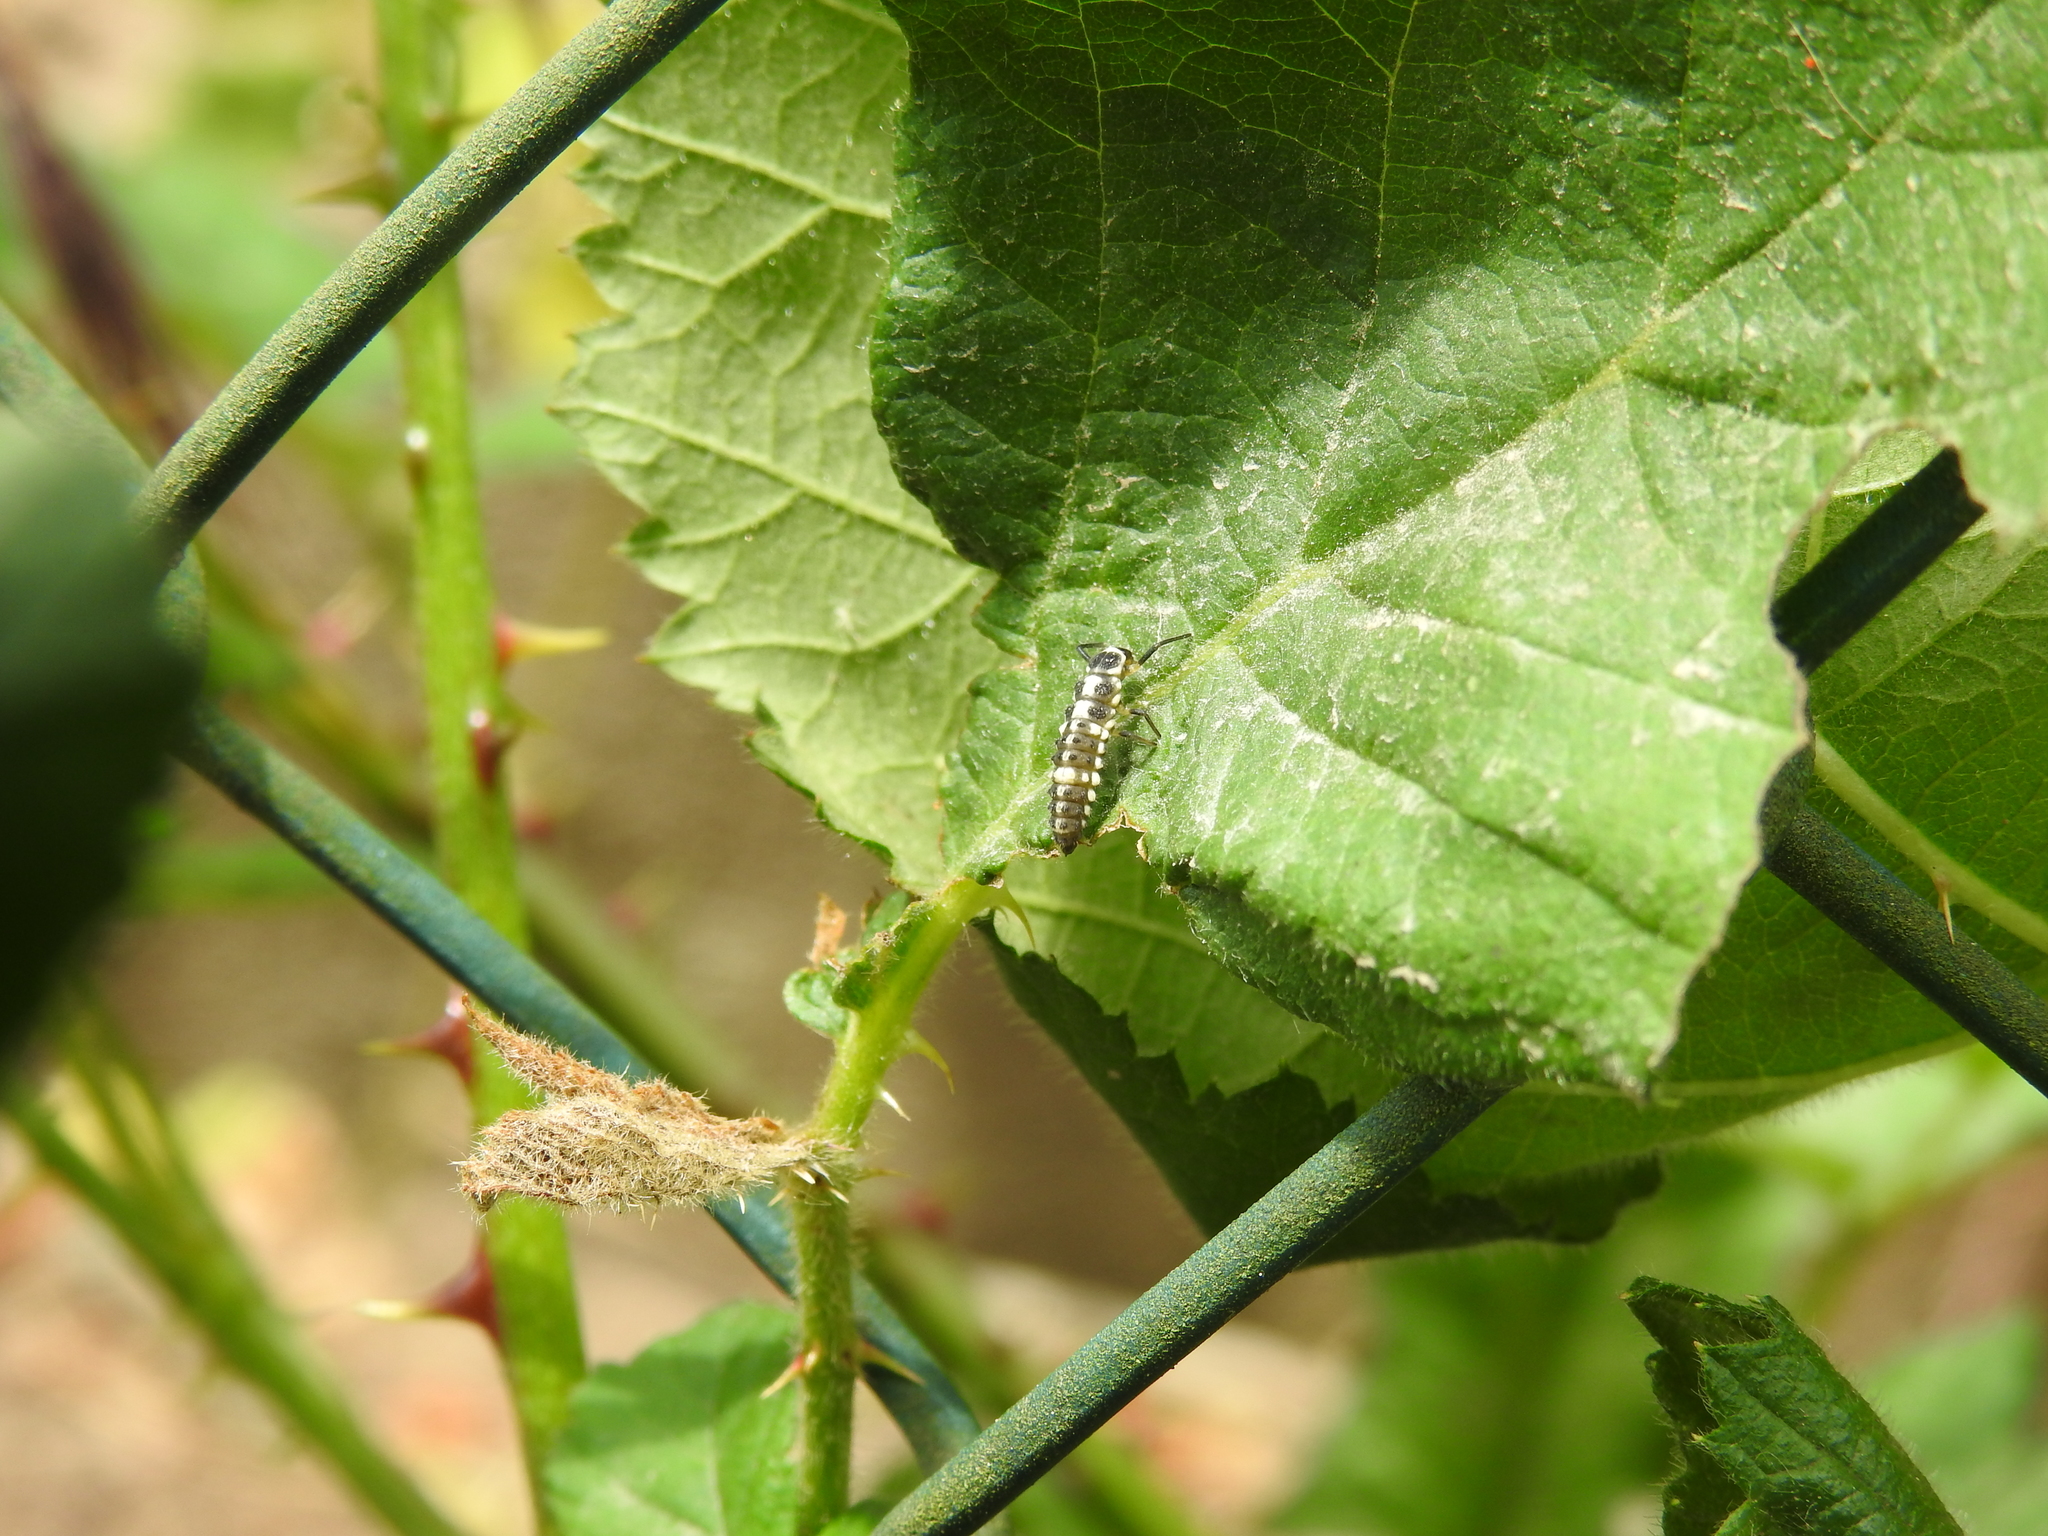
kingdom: Animalia
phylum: Arthropoda
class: Insecta
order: Coleoptera
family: Coccinellidae
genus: Propylaea
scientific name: Propylaea quatuordecimpunctata
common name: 14-spotted ladybird beetle
